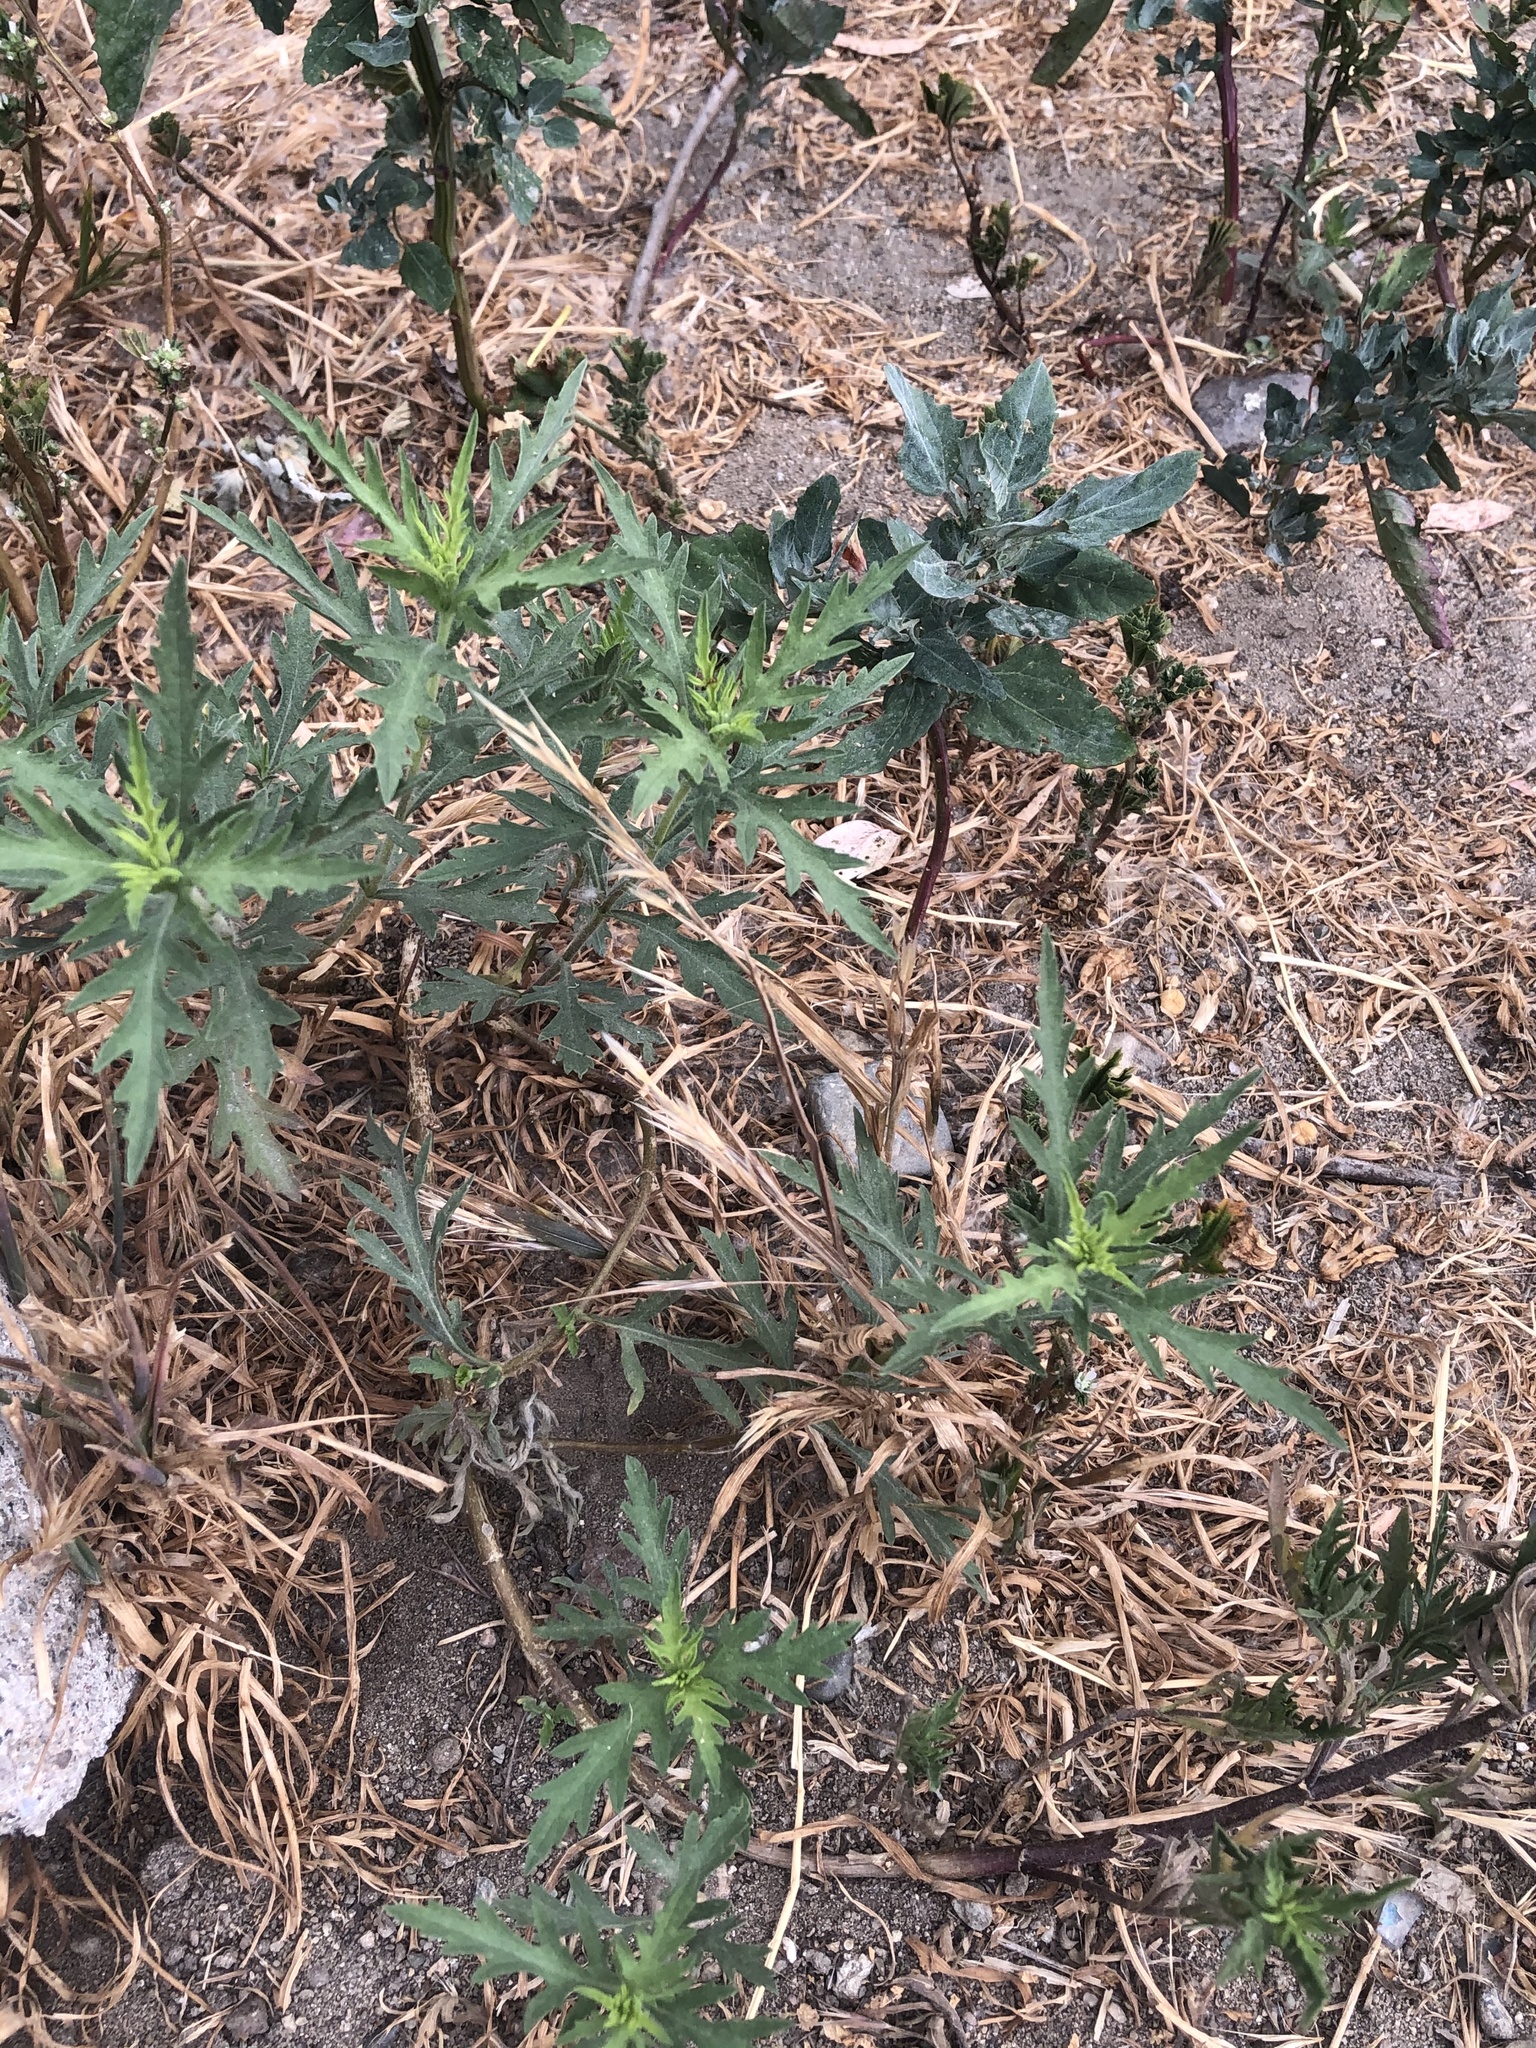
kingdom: Plantae
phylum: Tracheophyta
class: Magnoliopsida
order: Asterales
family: Asteraceae
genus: Ambrosia
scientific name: Ambrosia psilostachya
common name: Perennial ragweed
